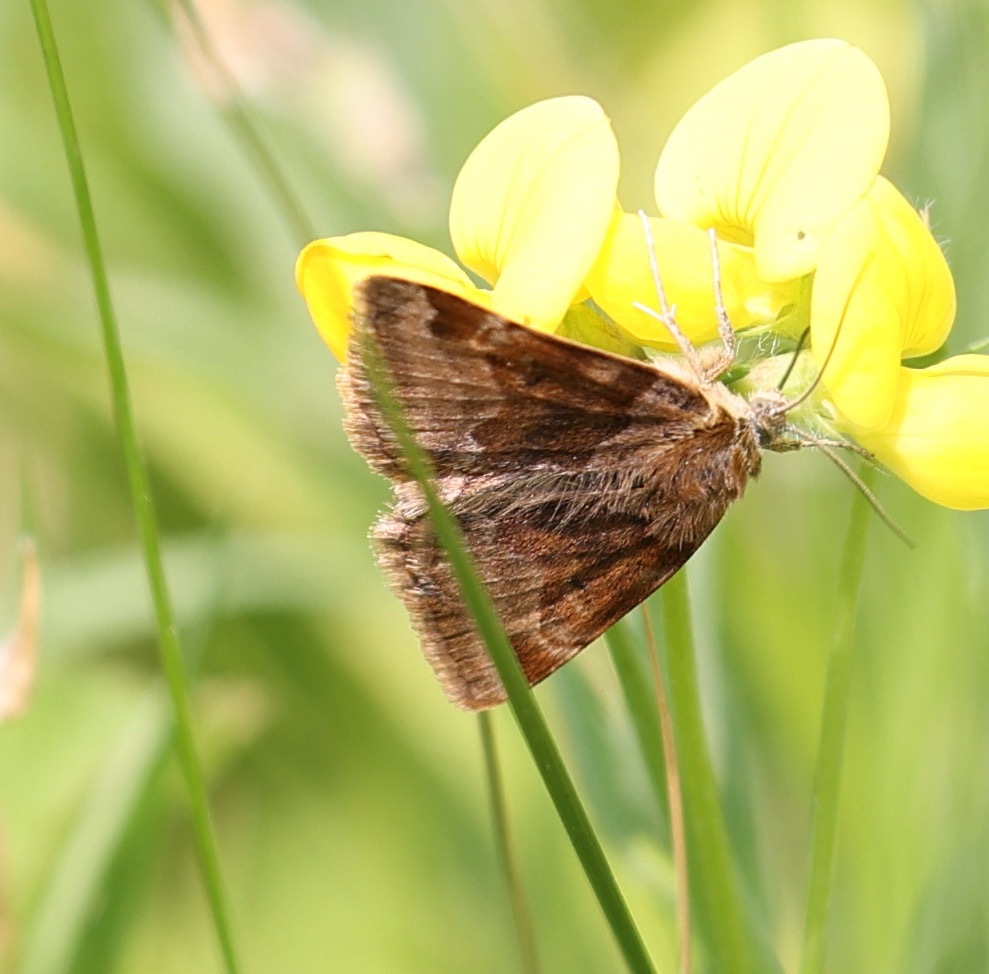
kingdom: Animalia
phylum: Arthropoda
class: Insecta
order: Lepidoptera
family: Erebidae
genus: Euclidia
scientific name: Euclidia glyphica
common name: Burnet companion
